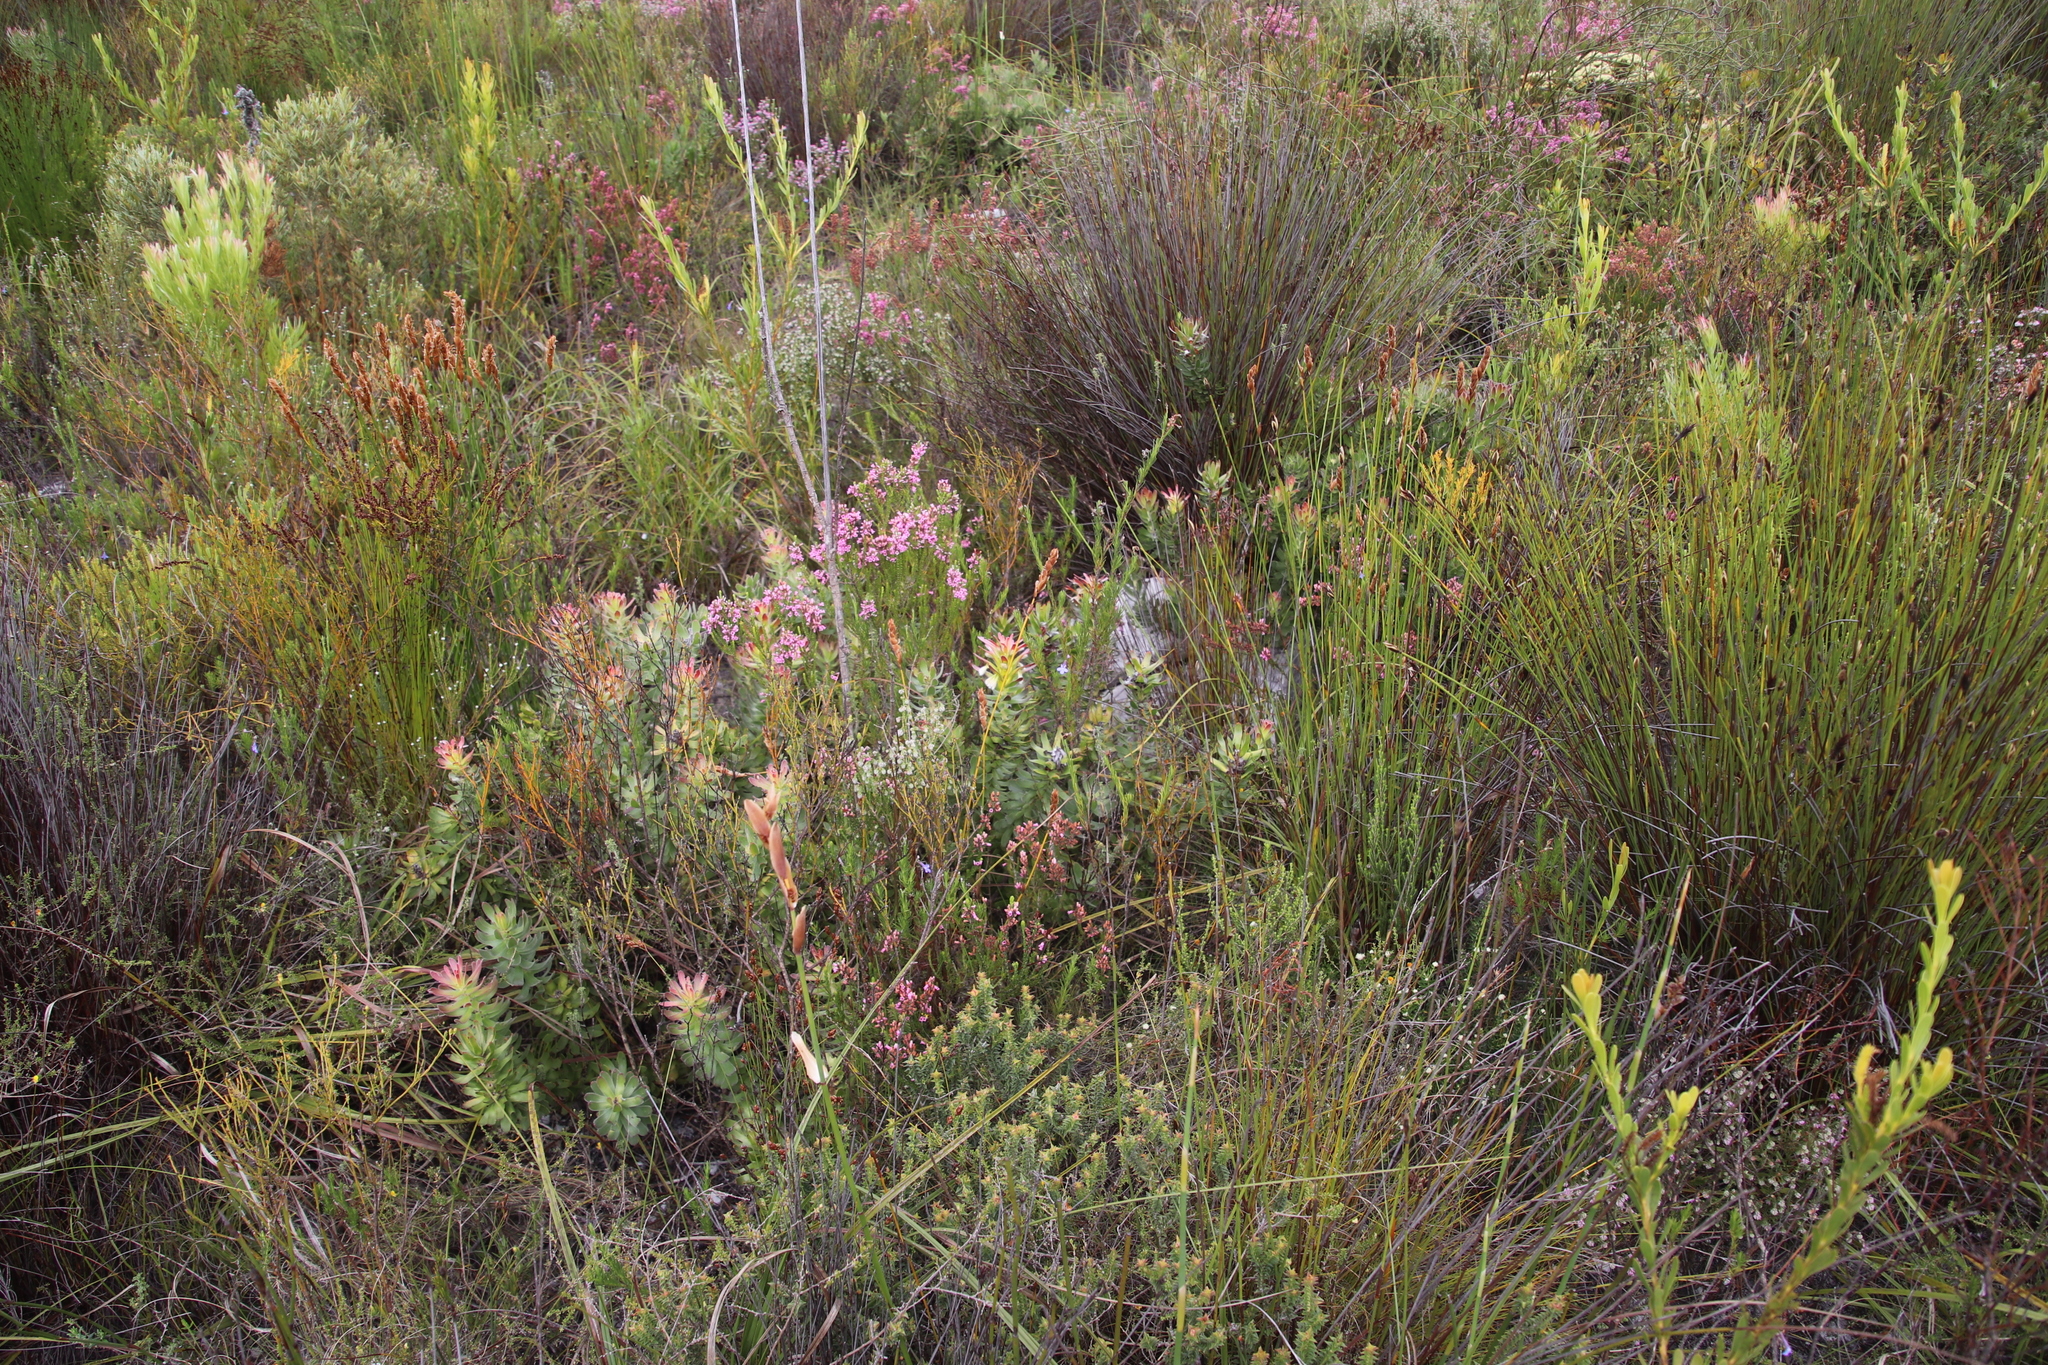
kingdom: Plantae
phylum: Tracheophyta
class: Magnoliopsida
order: Proteales
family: Proteaceae
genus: Mimetes
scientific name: Mimetes cucullatus
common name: Common pagoda
